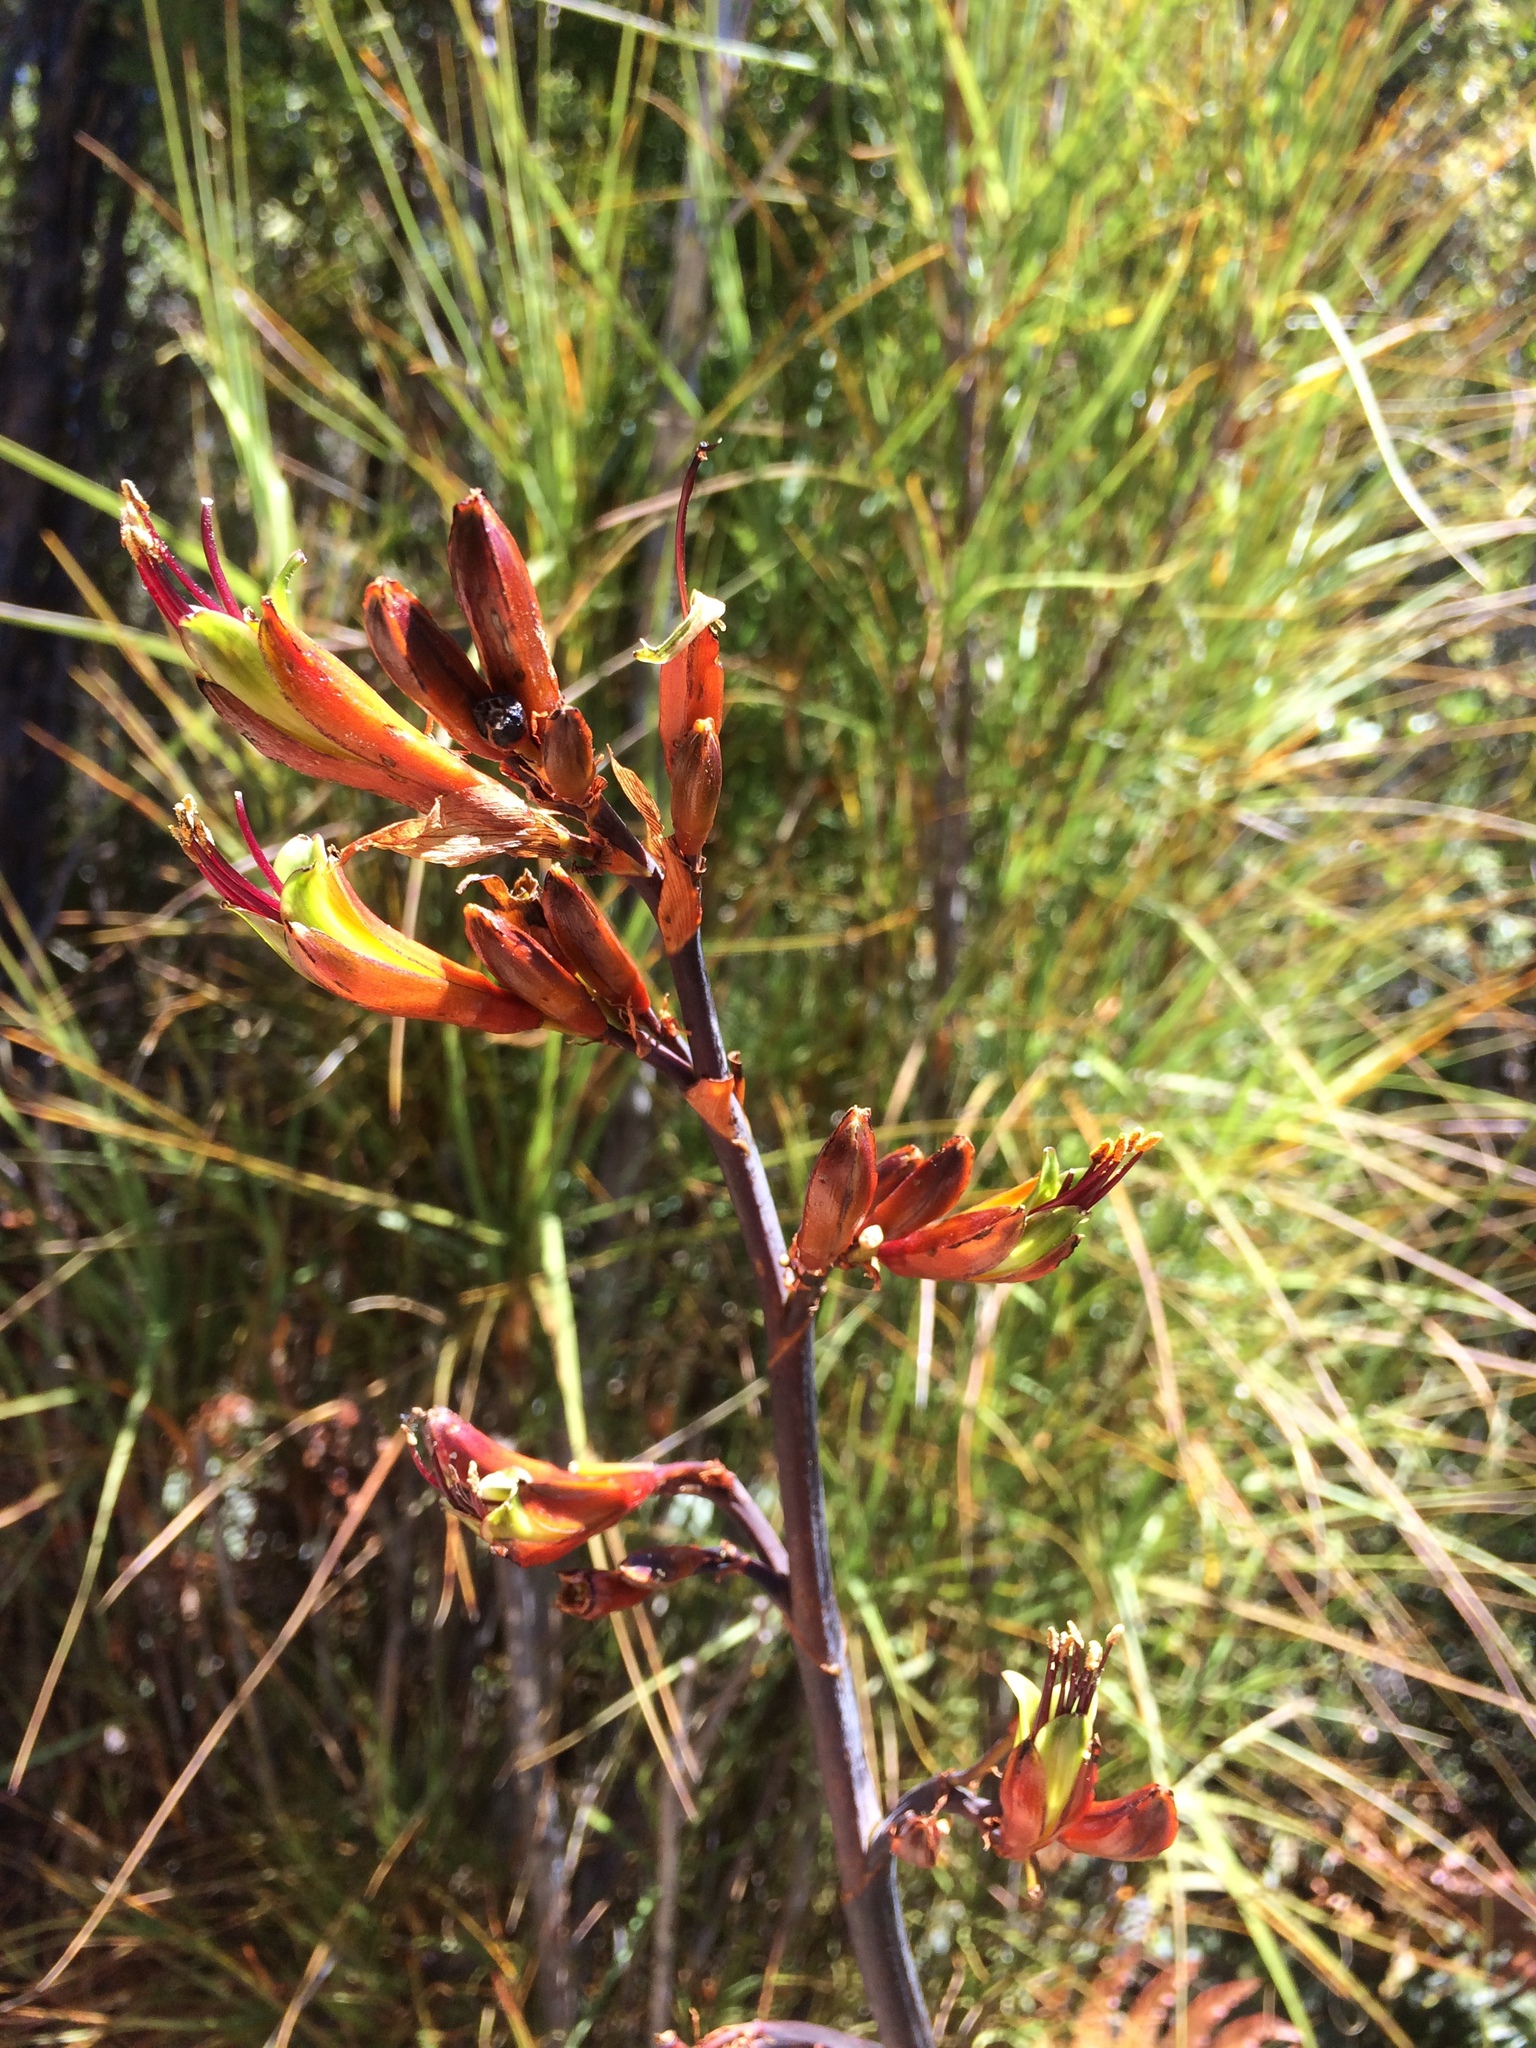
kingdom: Plantae
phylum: Tracheophyta
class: Liliopsida
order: Asparagales
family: Asphodelaceae
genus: Phormium
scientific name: Phormium colensoi
